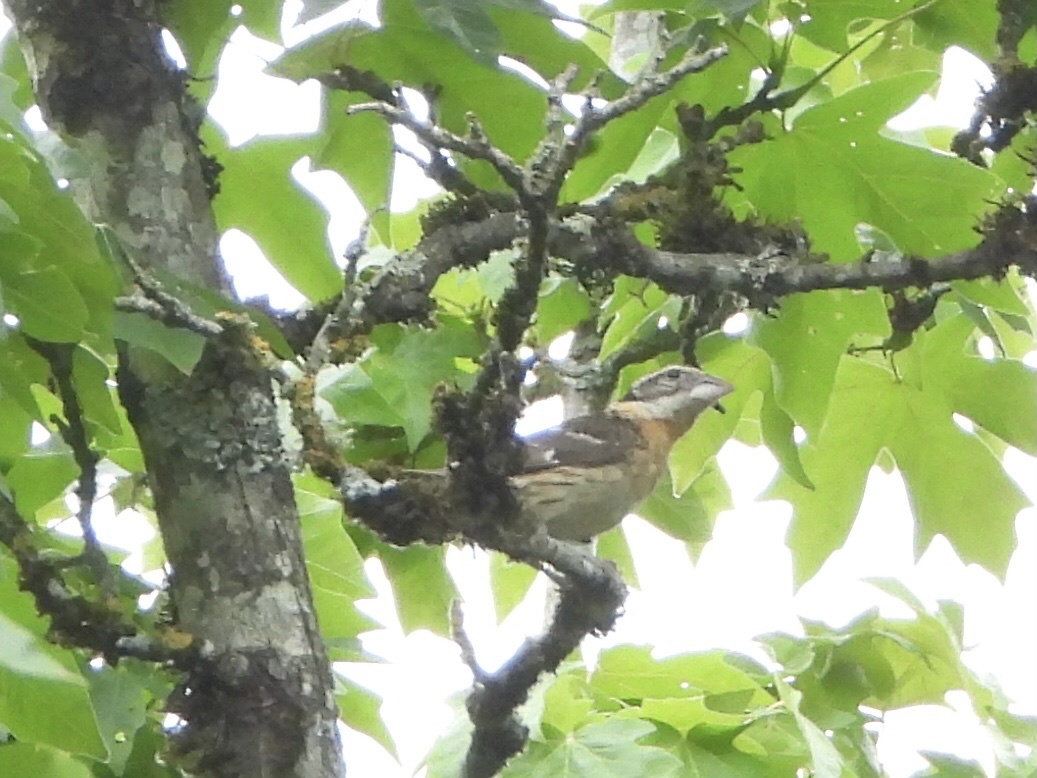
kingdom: Animalia
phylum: Chordata
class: Aves
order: Passeriformes
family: Cardinalidae
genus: Pheucticus
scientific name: Pheucticus melanocephalus
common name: Black-headed grosbeak
